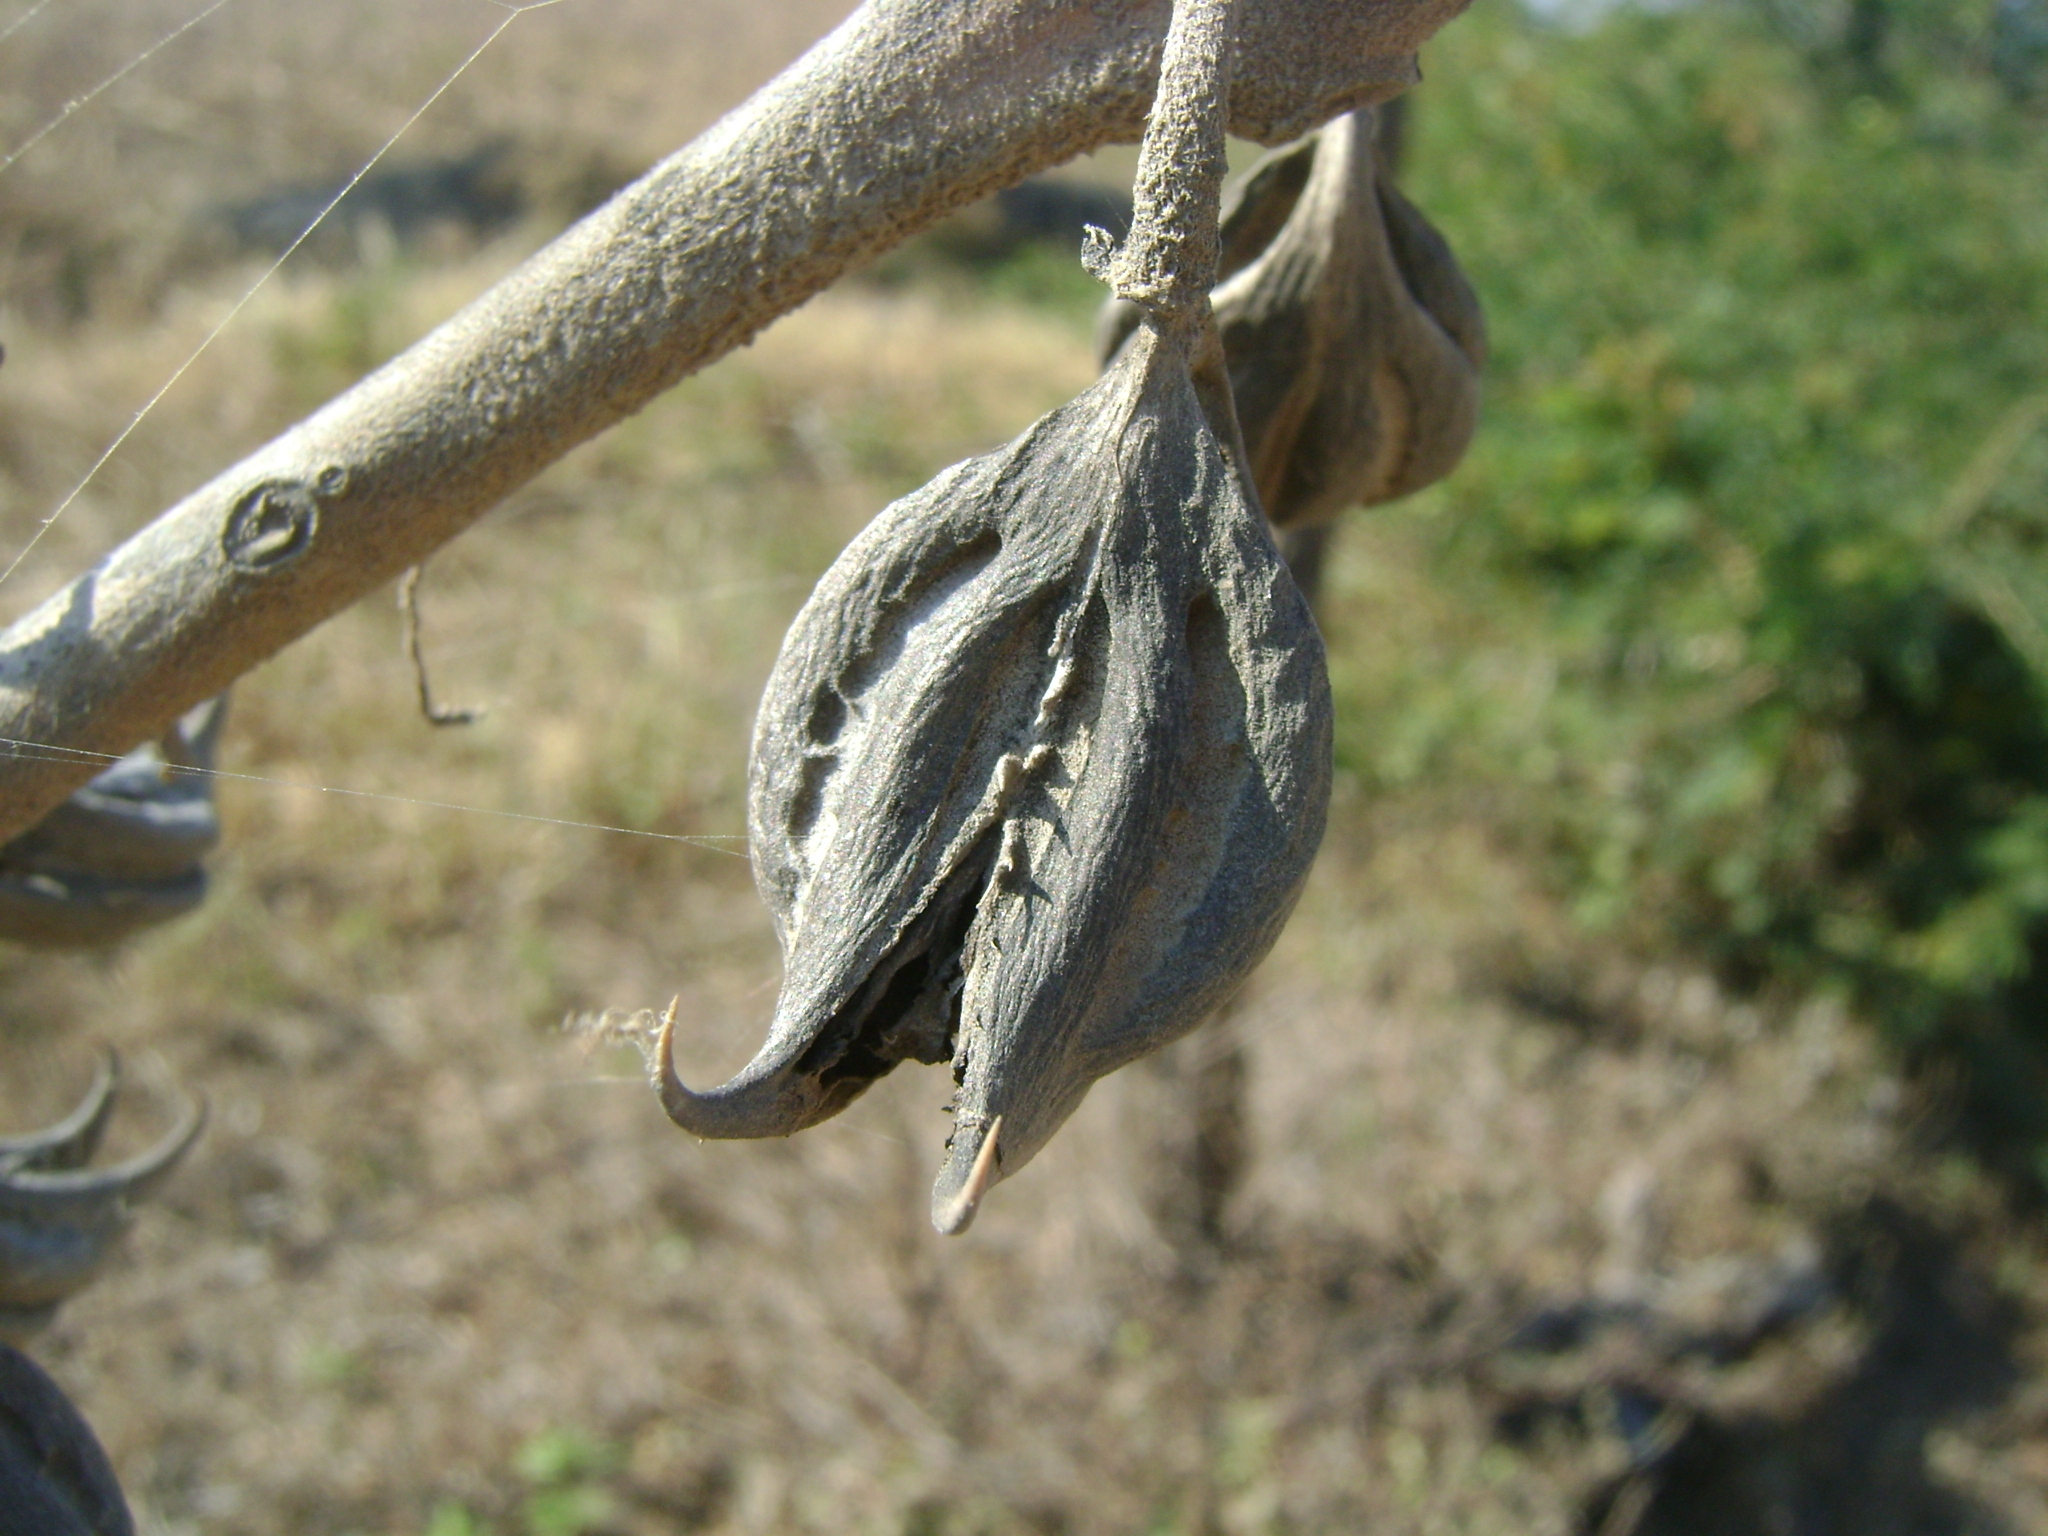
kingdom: Plantae
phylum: Tracheophyta
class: Magnoliopsida
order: Lamiales
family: Martyniaceae
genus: Martynia
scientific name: Martynia annua
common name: Tiger's-claw
